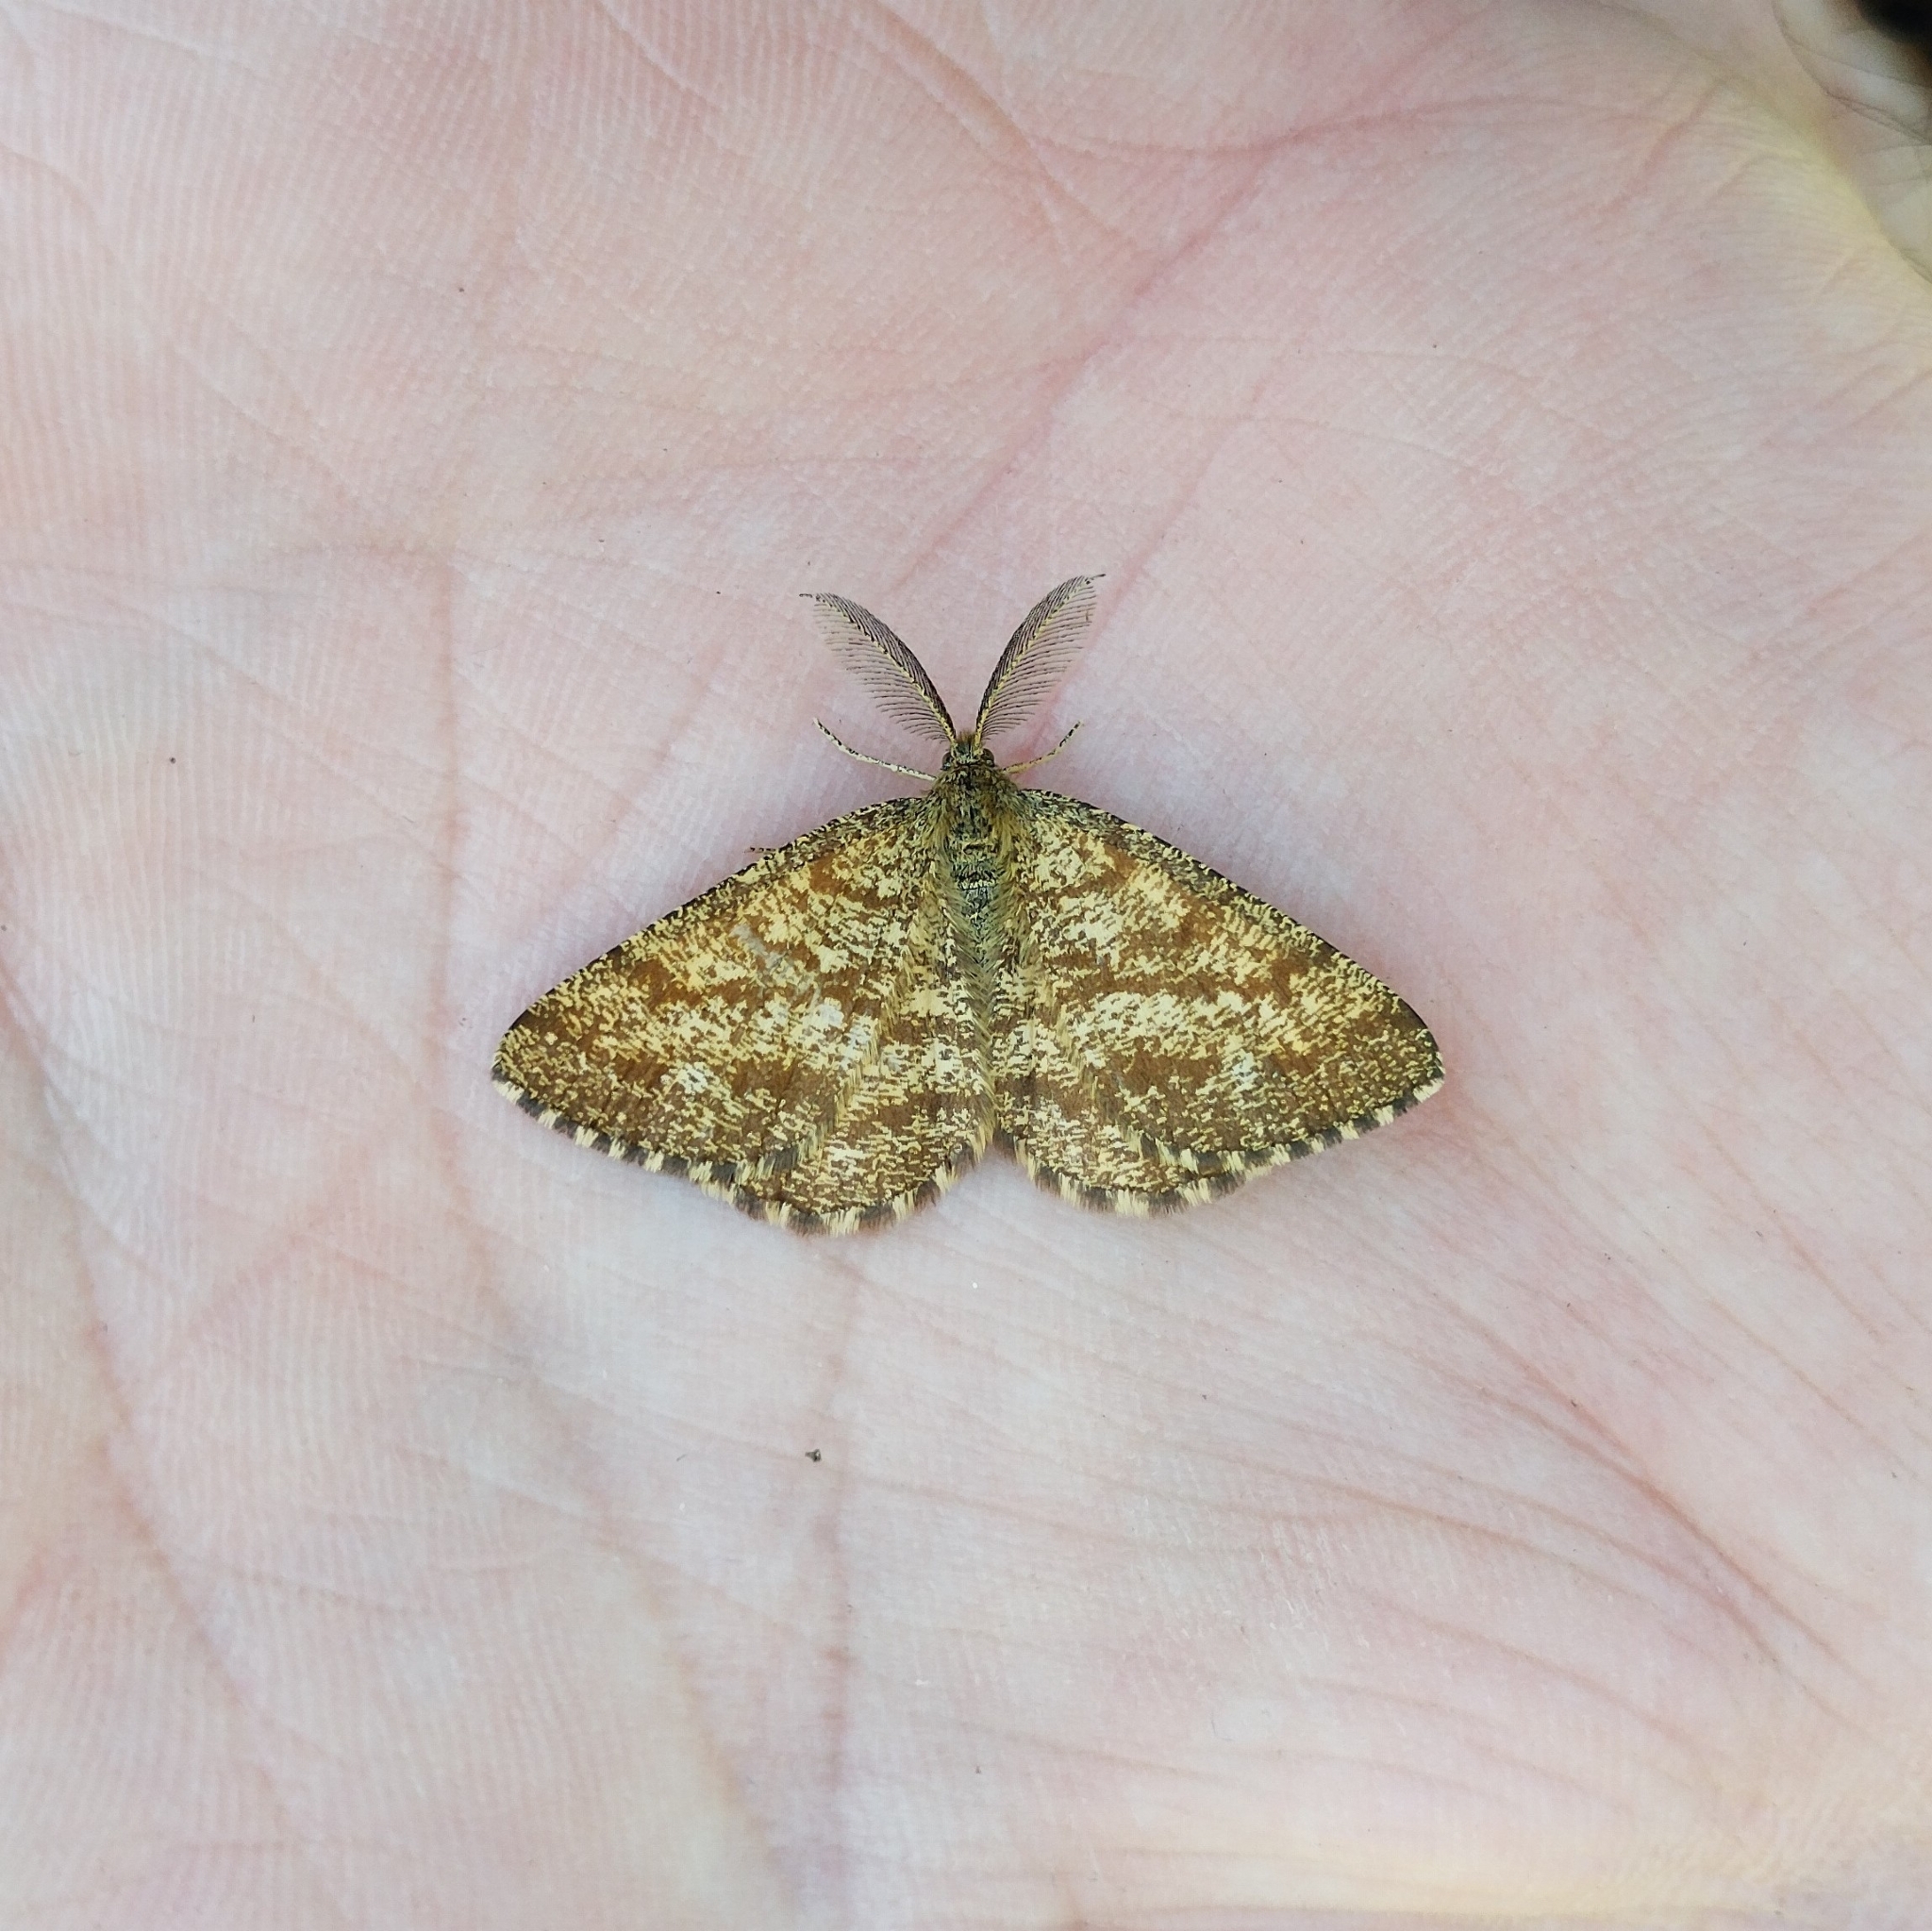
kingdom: Animalia
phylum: Arthropoda
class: Insecta
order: Lepidoptera
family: Geometridae
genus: Ematurga
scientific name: Ematurga atomaria
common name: Common heath
